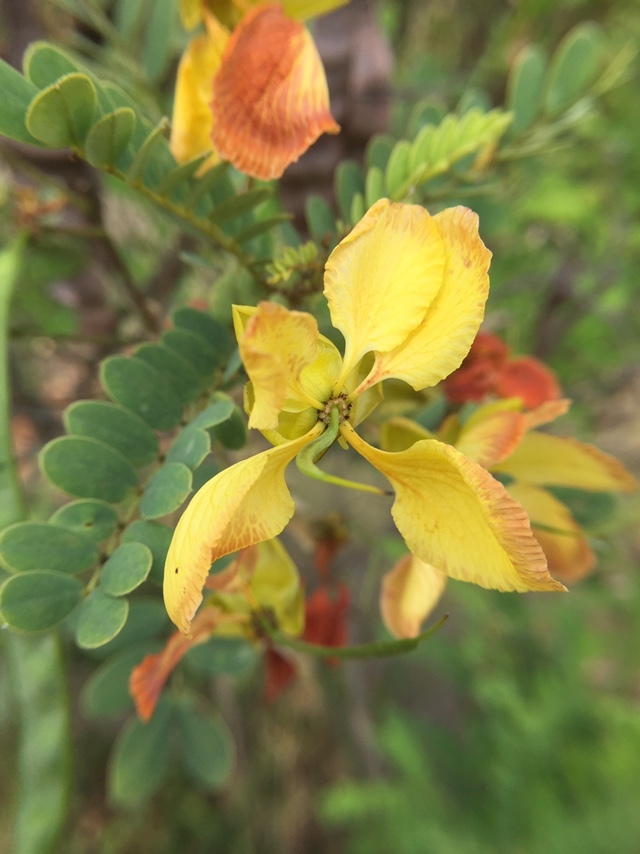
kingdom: Plantae
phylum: Tracheophyta
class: Magnoliopsida
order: Fabales
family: Fabaceae
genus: Senna
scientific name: Senna auriculata
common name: Tanner's cassia
